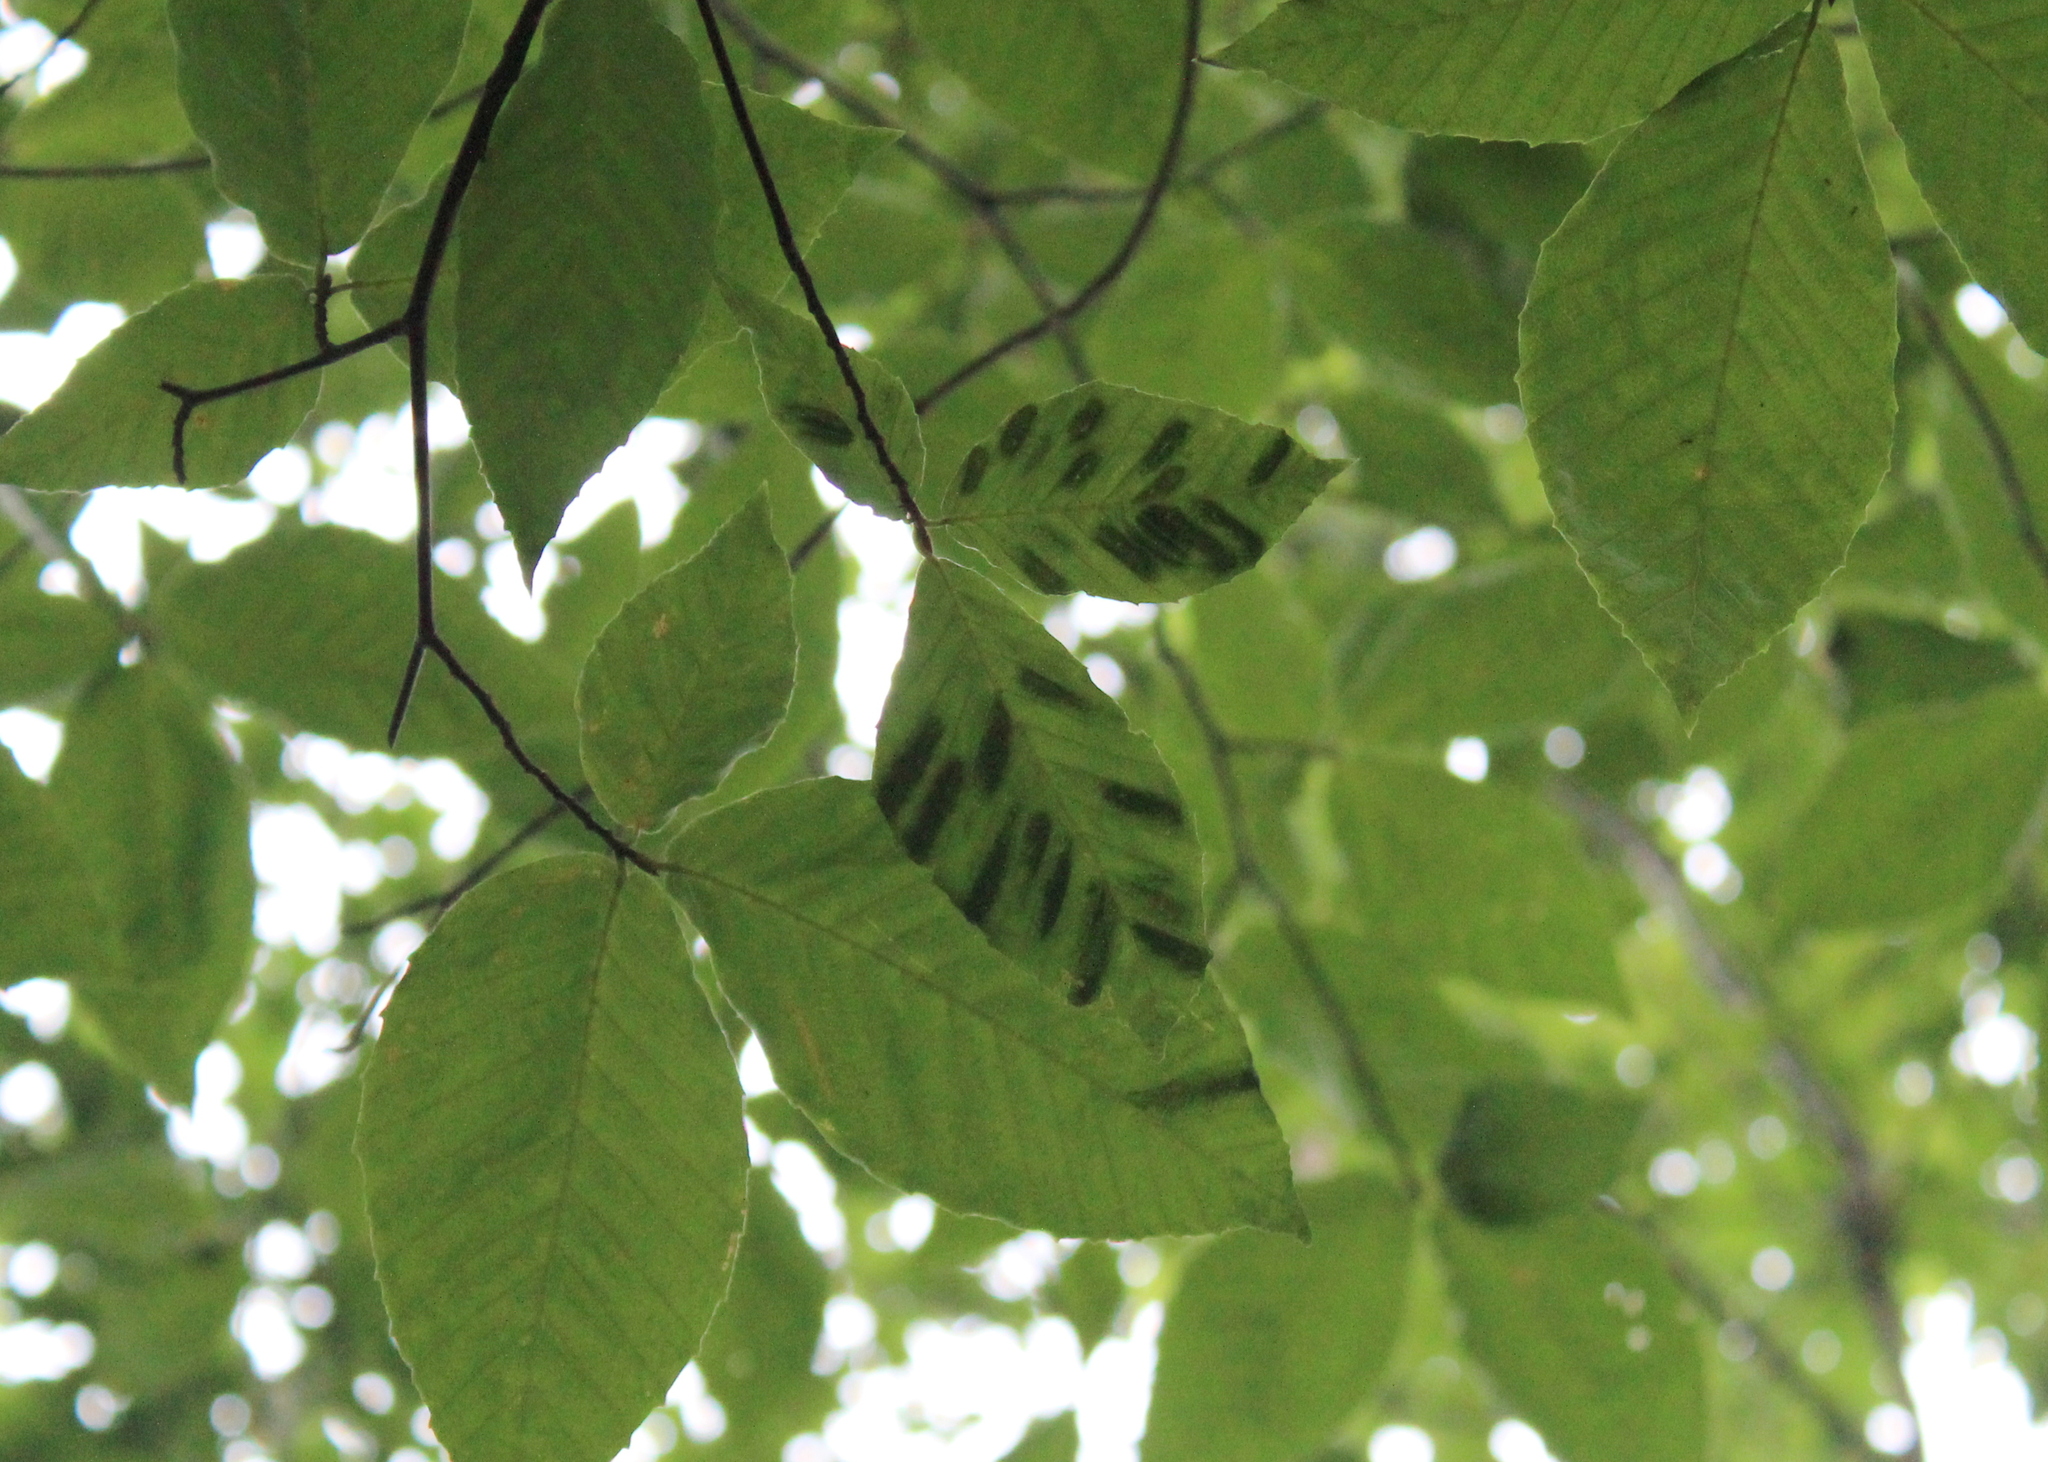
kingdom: Animalia
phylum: Nematoda
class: Chromadorea
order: Rhabditida
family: Anguinidae
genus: Litylenchus
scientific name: Litylenchus crenatae
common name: Beech leaf disease
